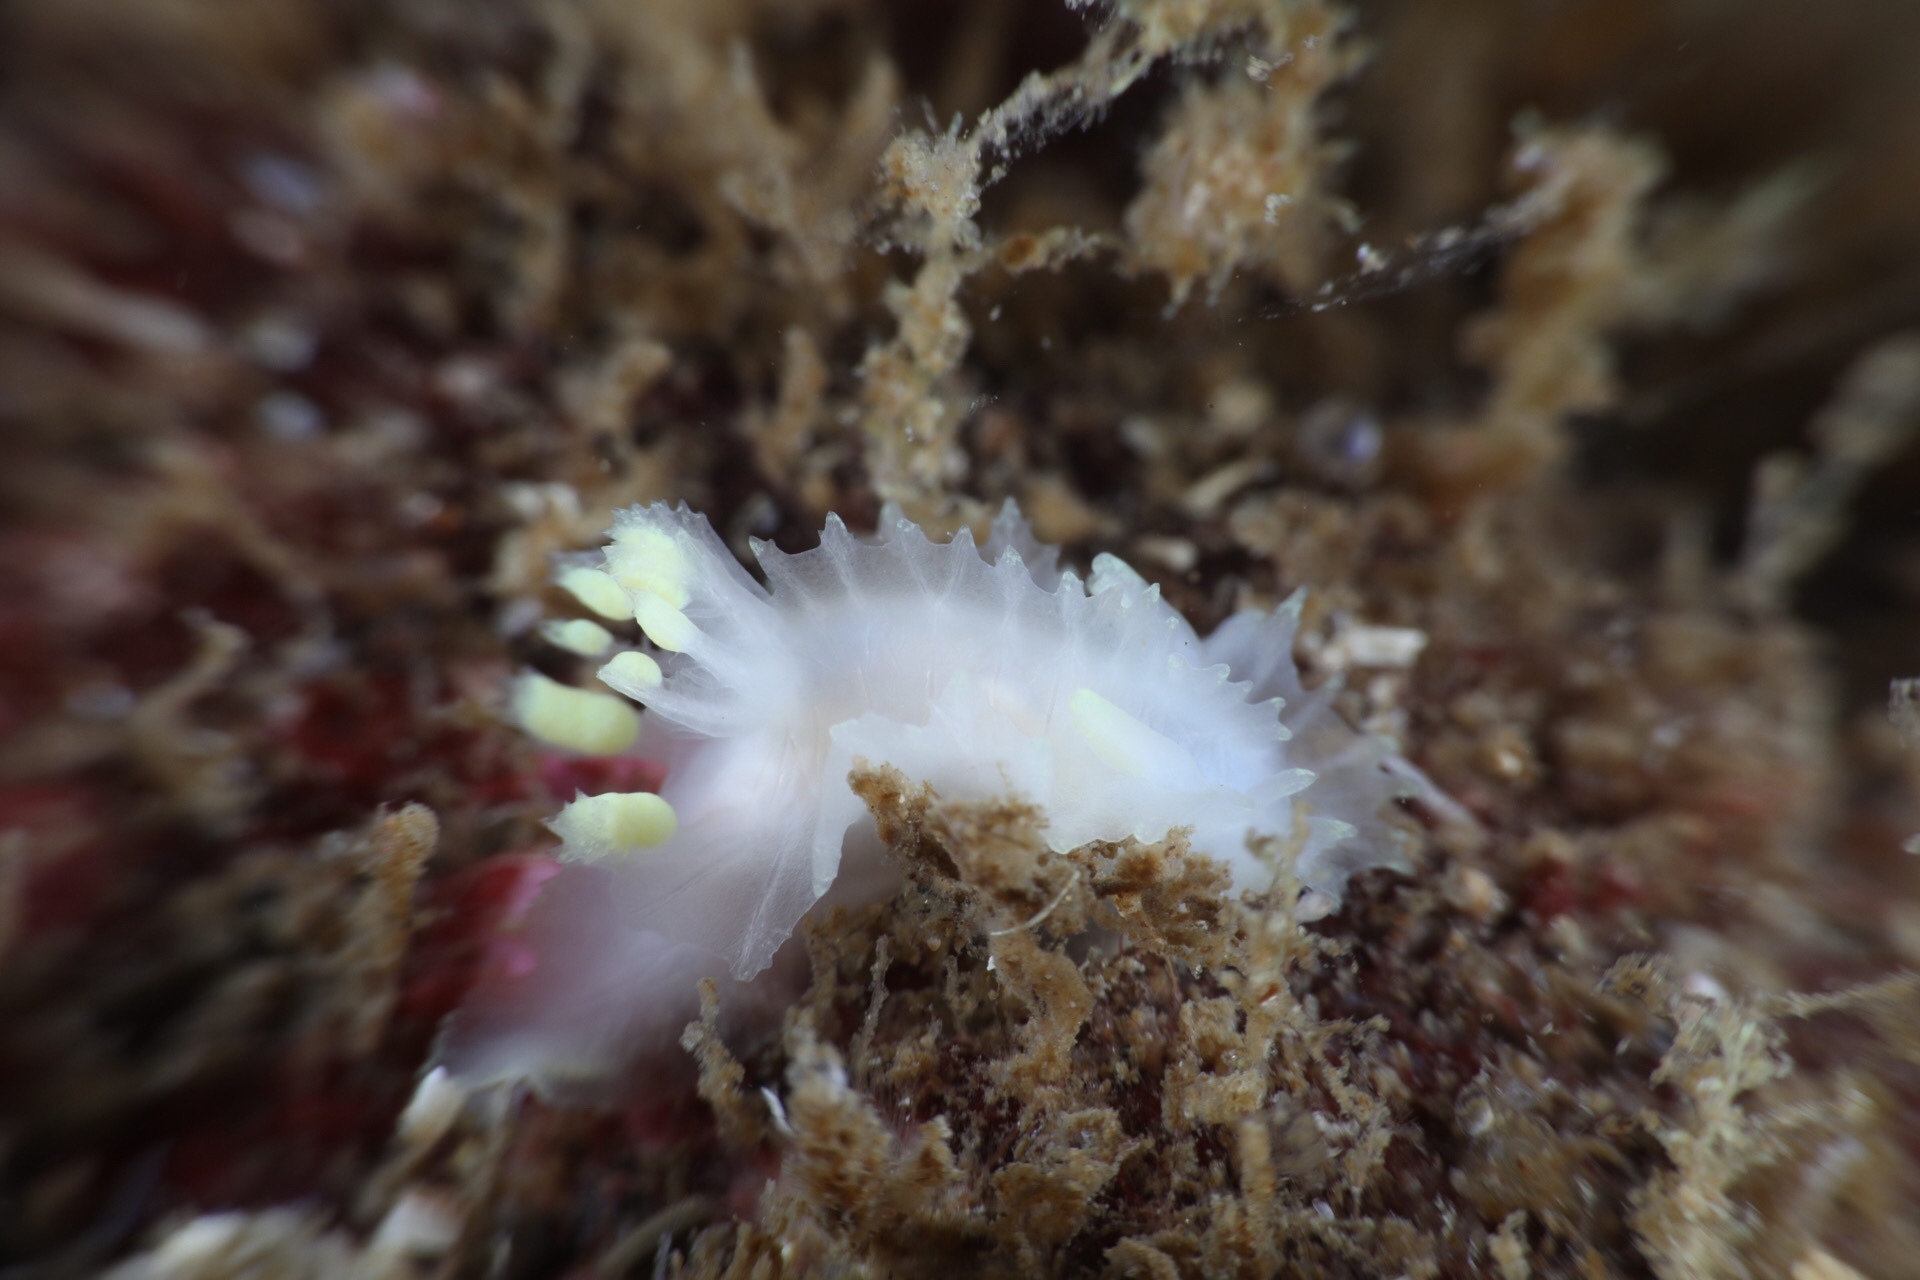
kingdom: Animalia
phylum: Mollusca
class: Gastropoda
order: Nudibranchia
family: Goniodorididae
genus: Lophodoris
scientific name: Lophodoris danielsseni
